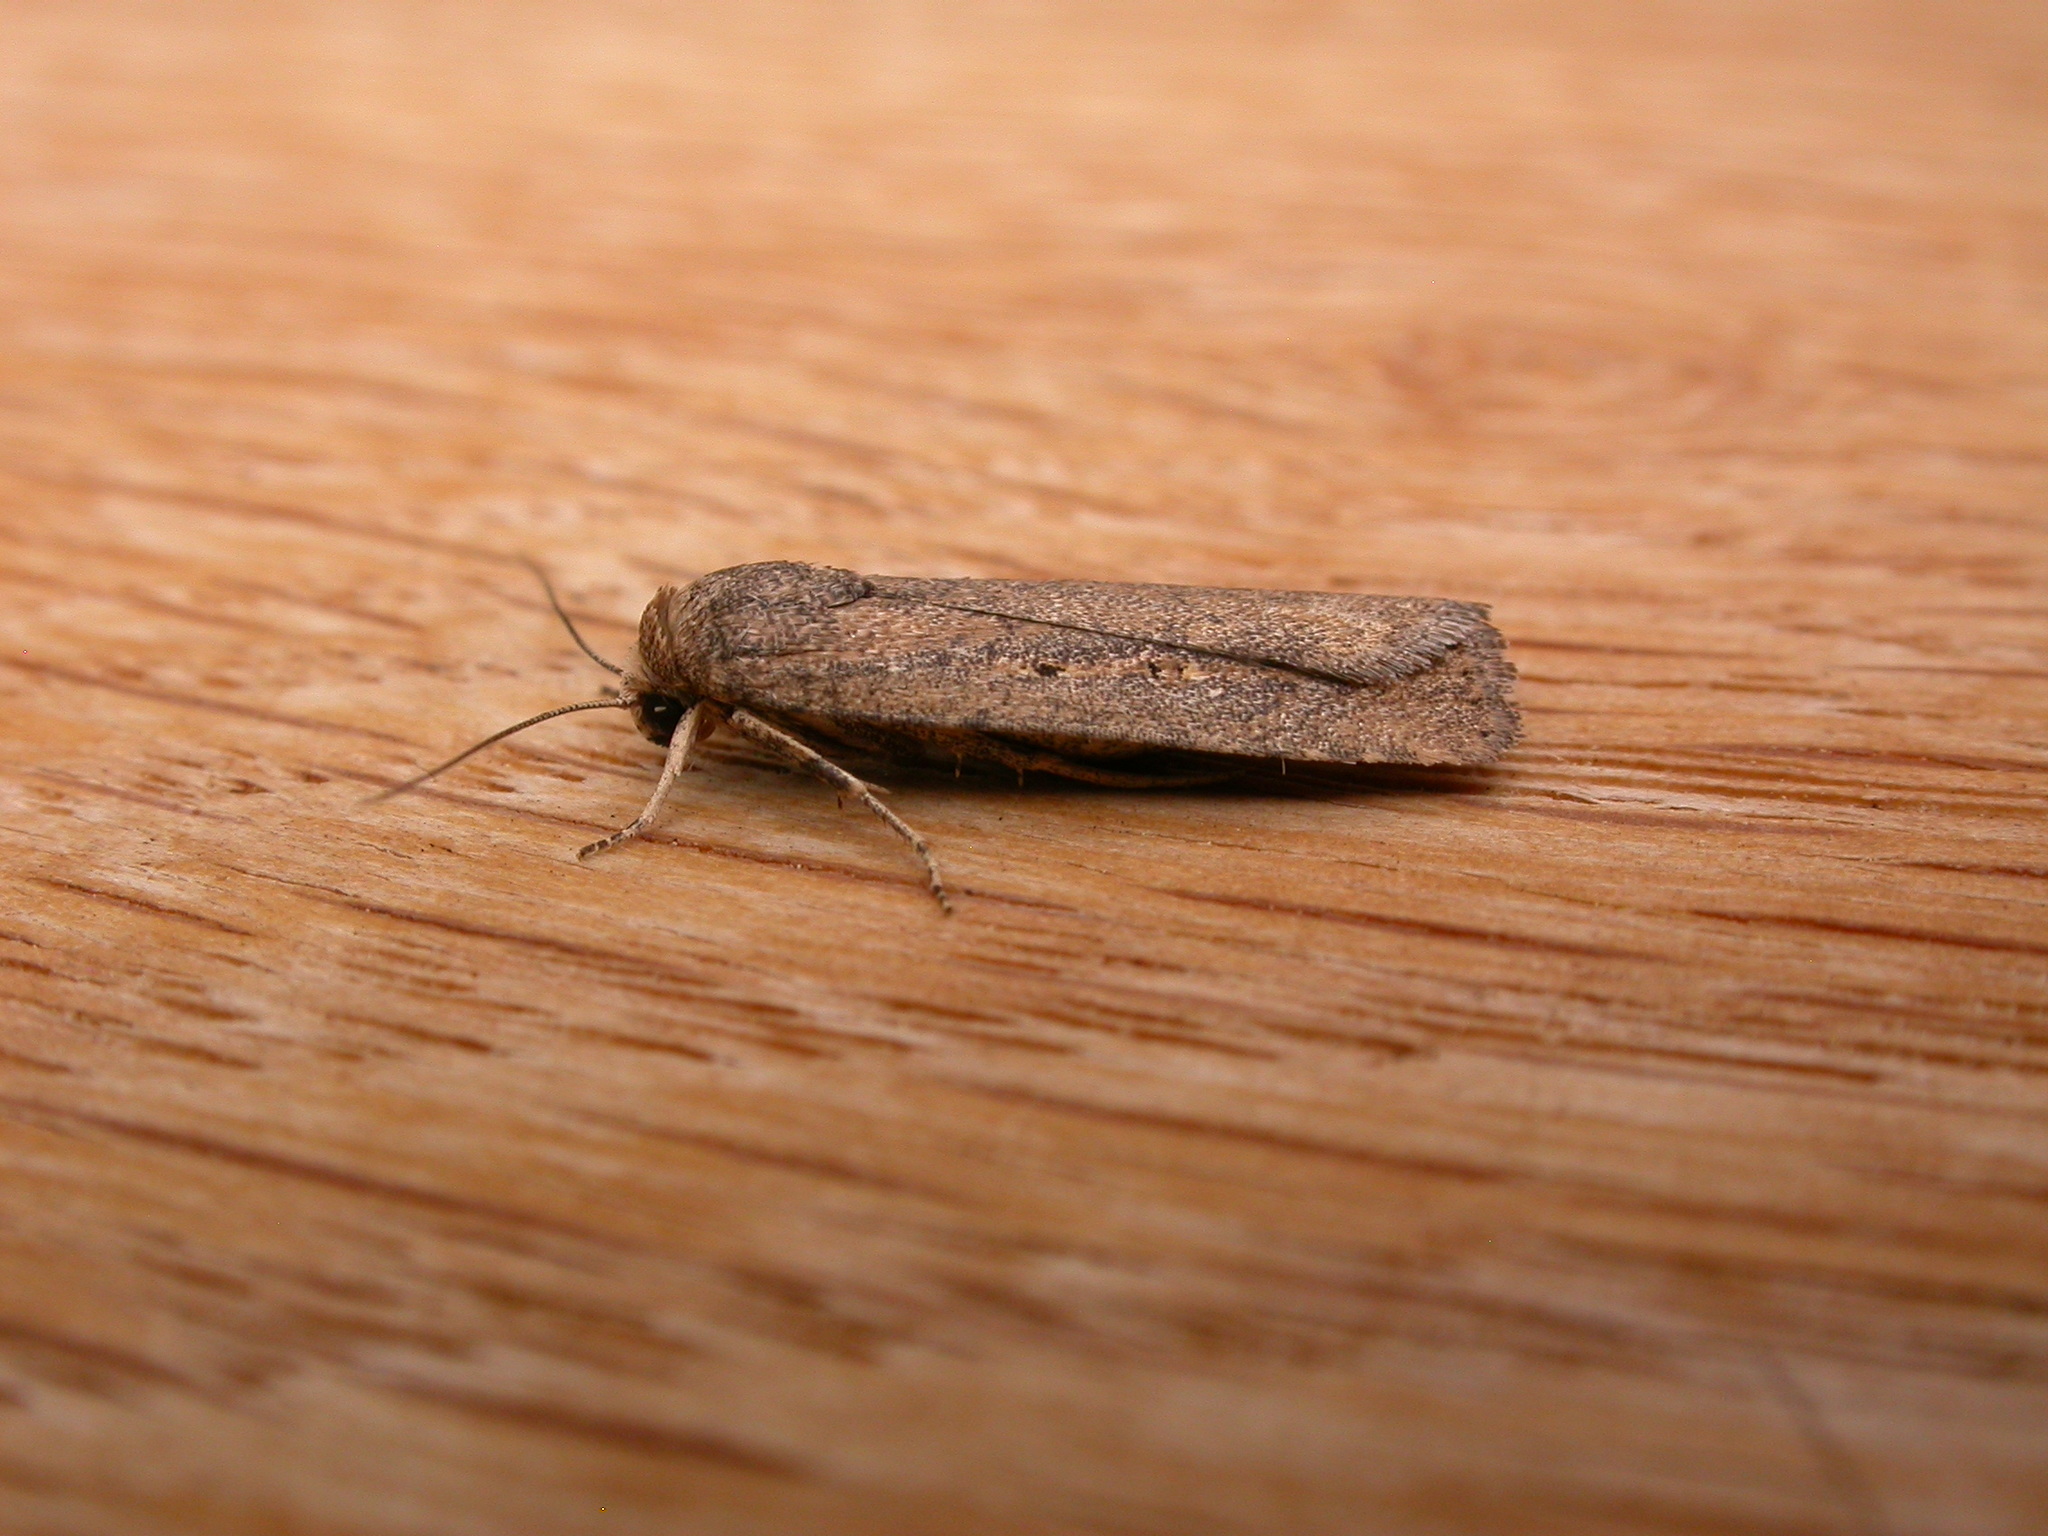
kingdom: Animalia
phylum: Arthropoda
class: Insecta
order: Lepidoptera
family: Noctuidae
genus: Athetis
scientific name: Athetis tenuis
